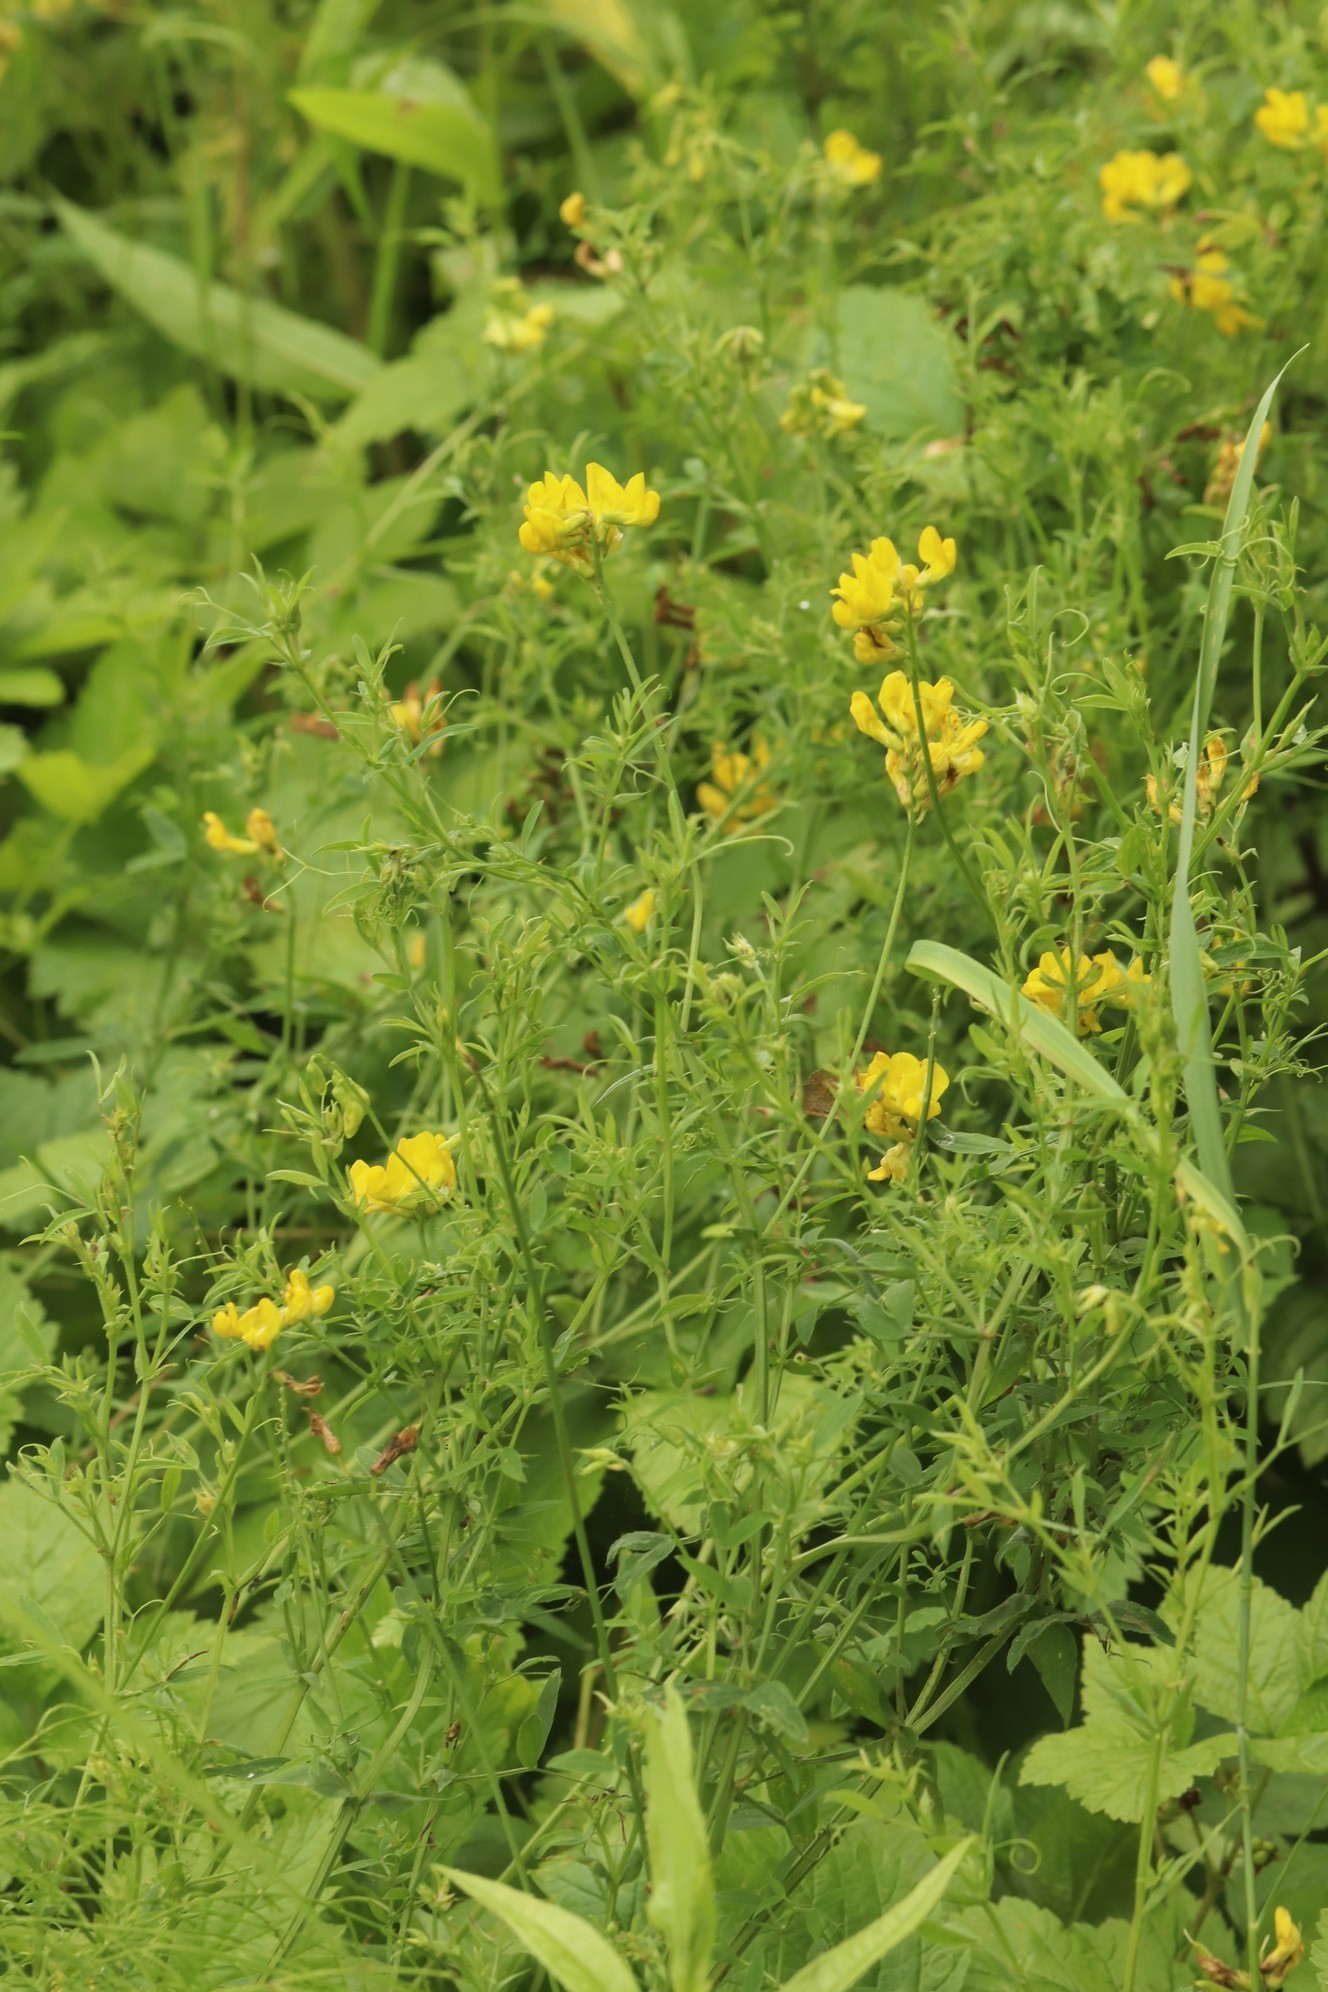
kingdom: Plantae
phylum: Tracheophyta
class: Magnoliopsida
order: Fabales
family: Fabaceae
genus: Lathyrus
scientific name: Lathyrus pratensis
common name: Meadow vetchling
